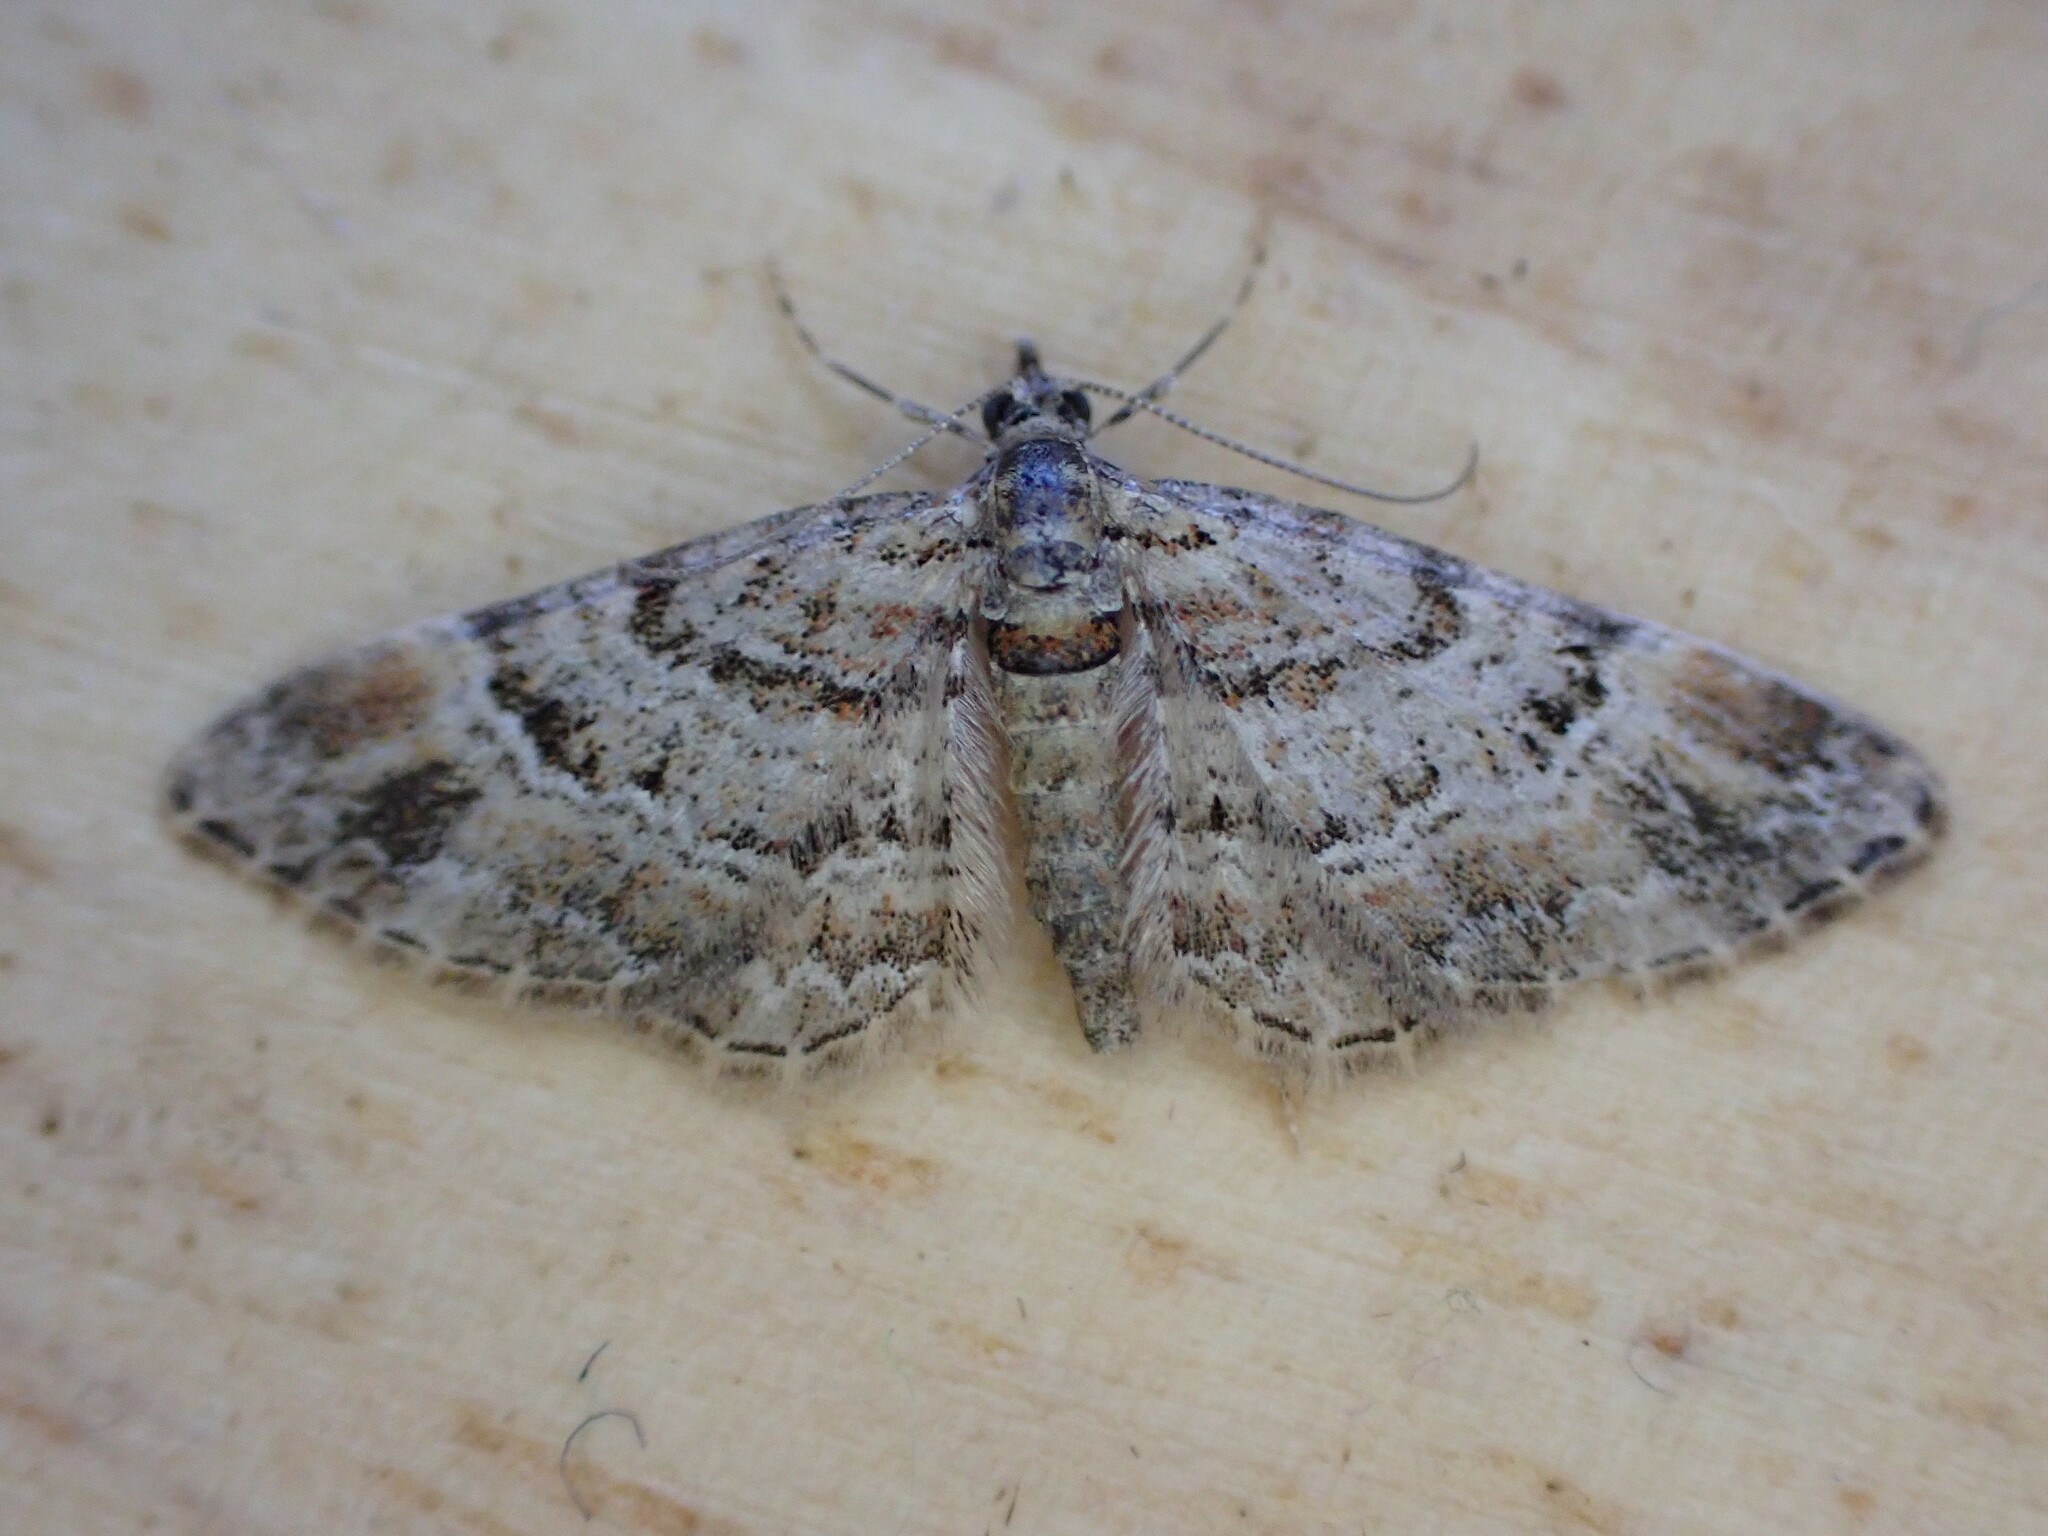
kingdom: Animalia
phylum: Arthropoda
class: Insecta
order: Lepidoptera
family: Geometridae
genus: Gymnoscelis
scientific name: Gymnoscelis rufifasciata
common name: Double-striped pug
